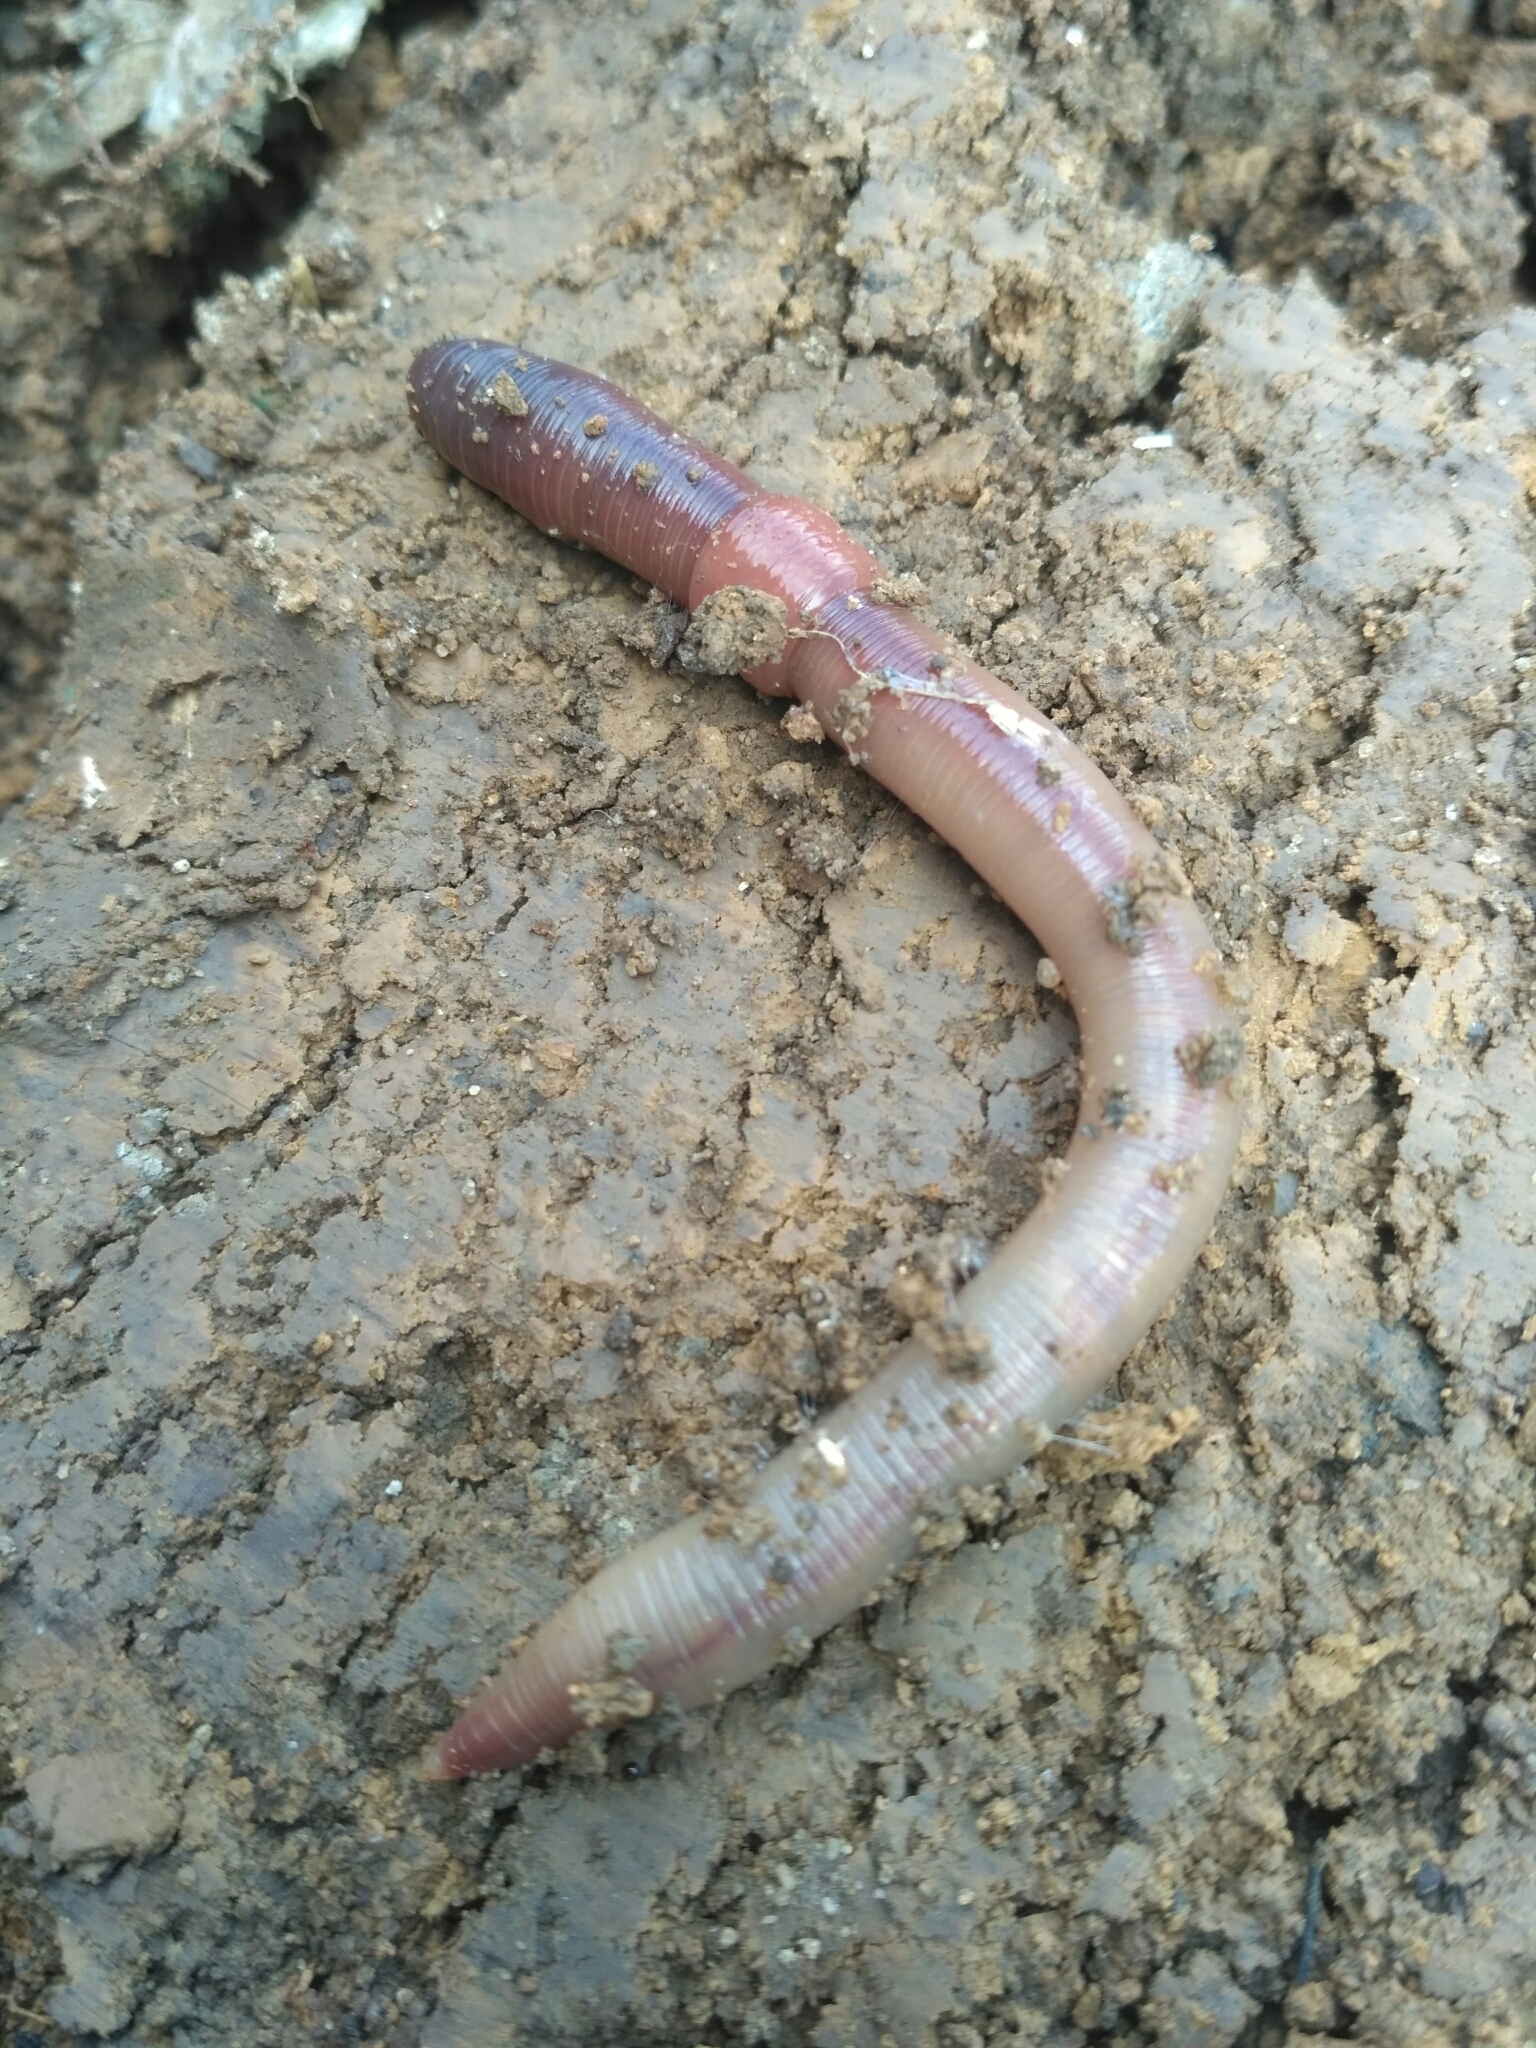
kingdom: Animalia
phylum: Annelida
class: Clitellata
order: Crassiclitellata
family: Lumbricidae
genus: Lumbricus
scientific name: Lumbricus terrestris
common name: Common earthworm
